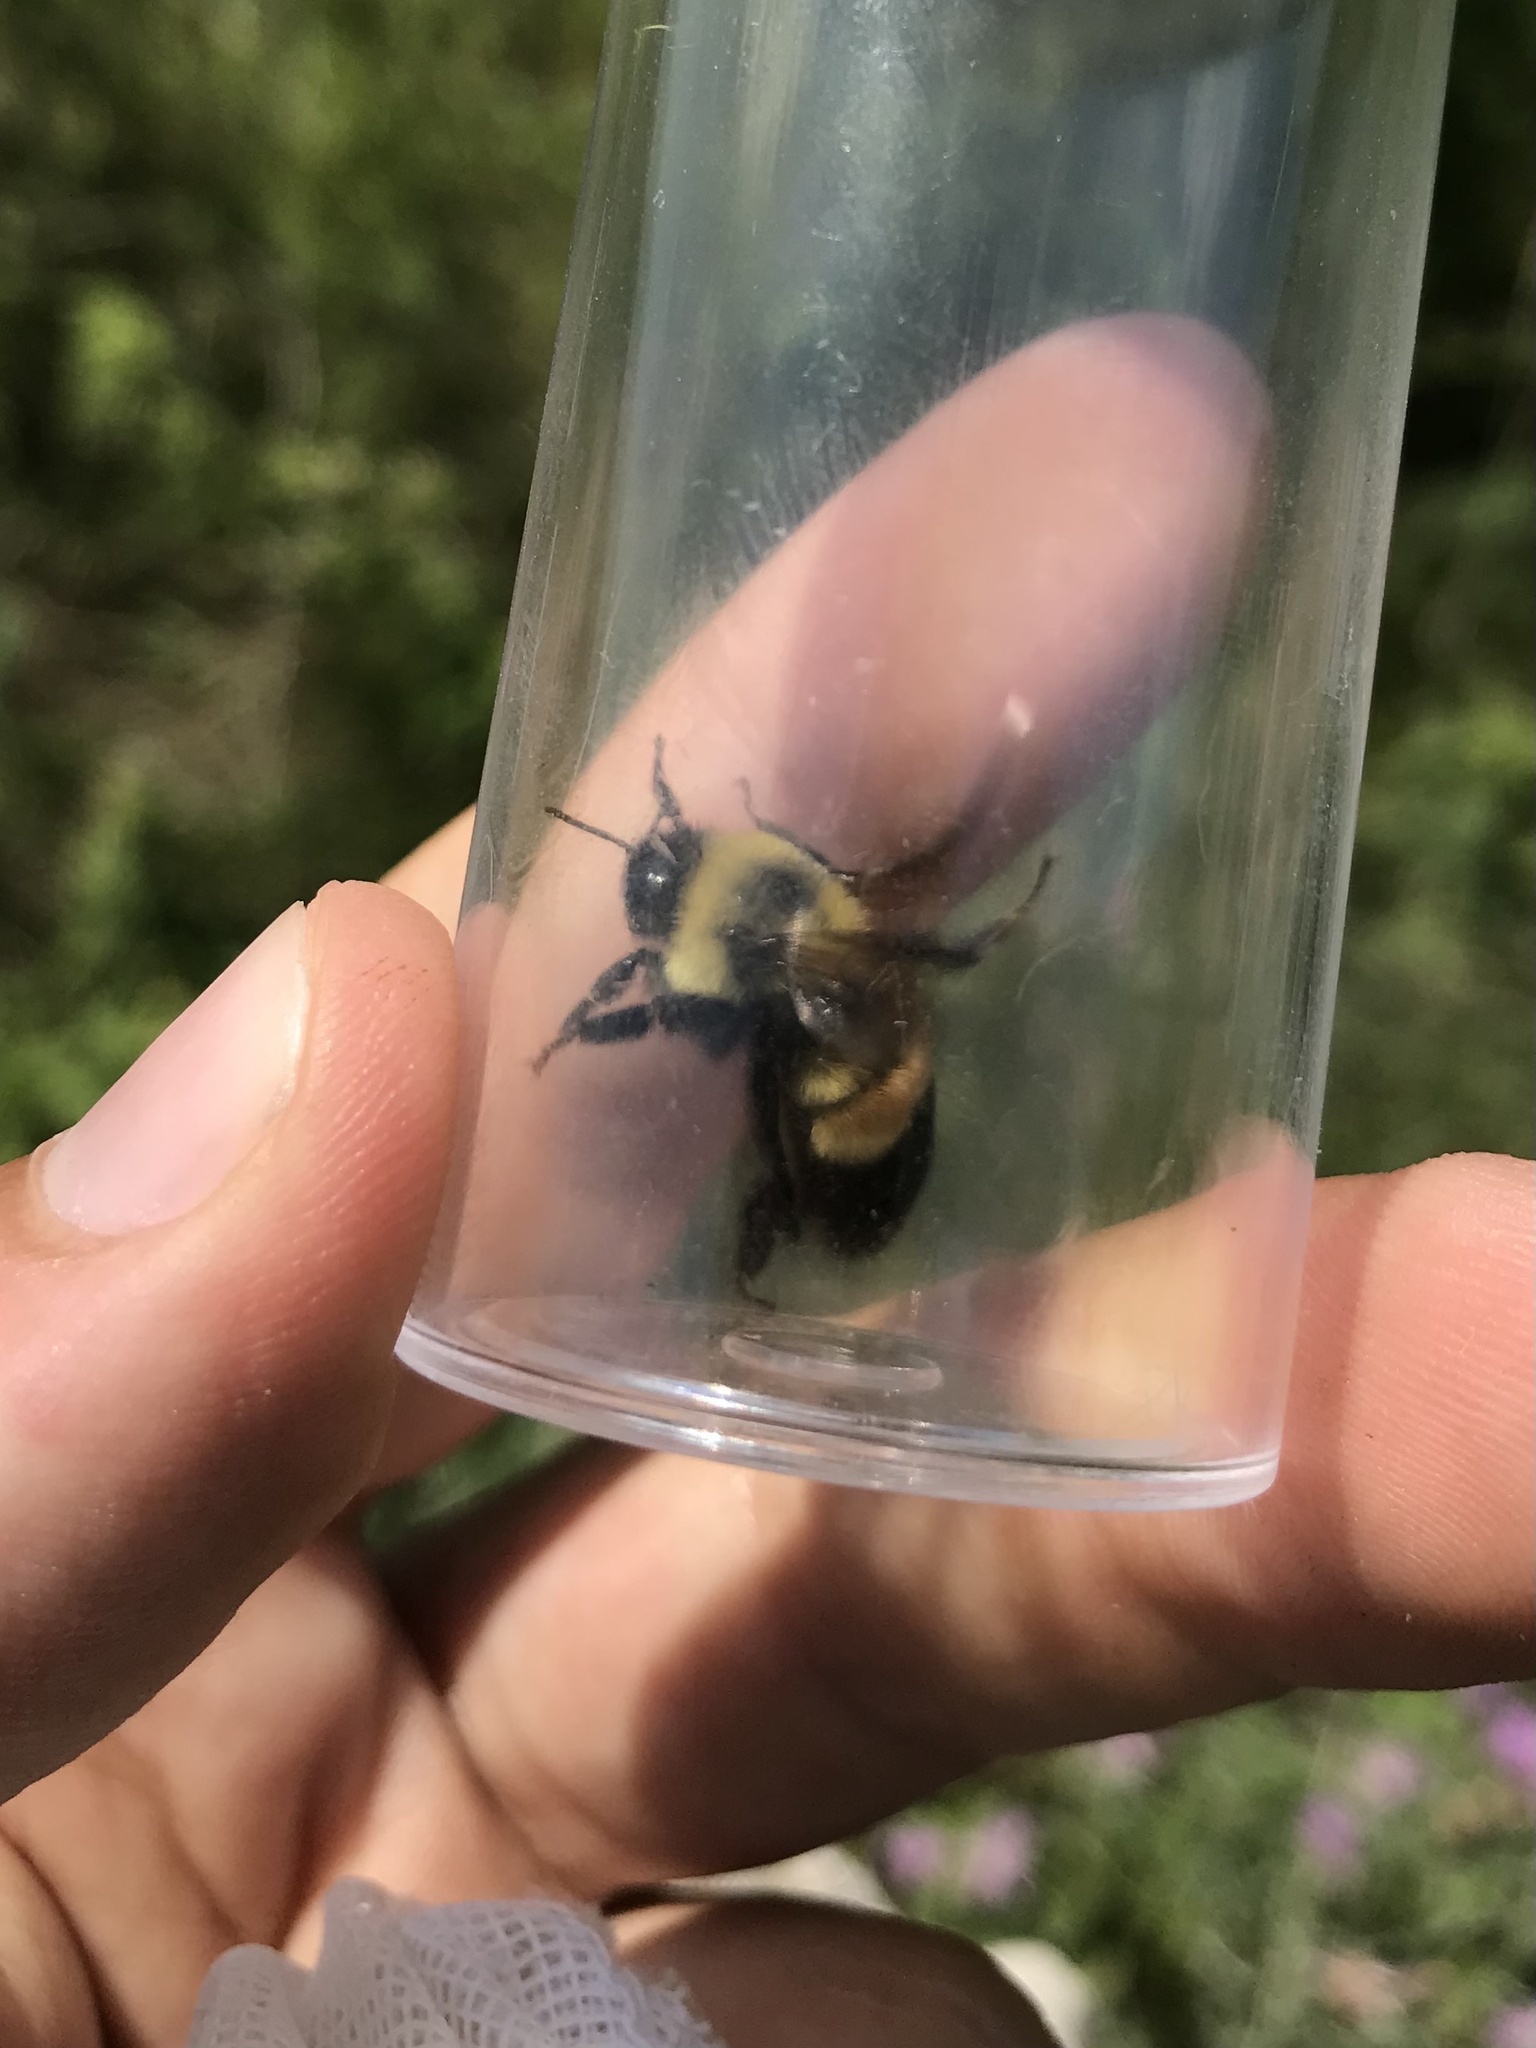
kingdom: Animalia
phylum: Arthropoda
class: Insecta
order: Hymenoptera
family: Apidae
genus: Bombus
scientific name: Bombus affinis
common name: Rusty patched bumble bee
